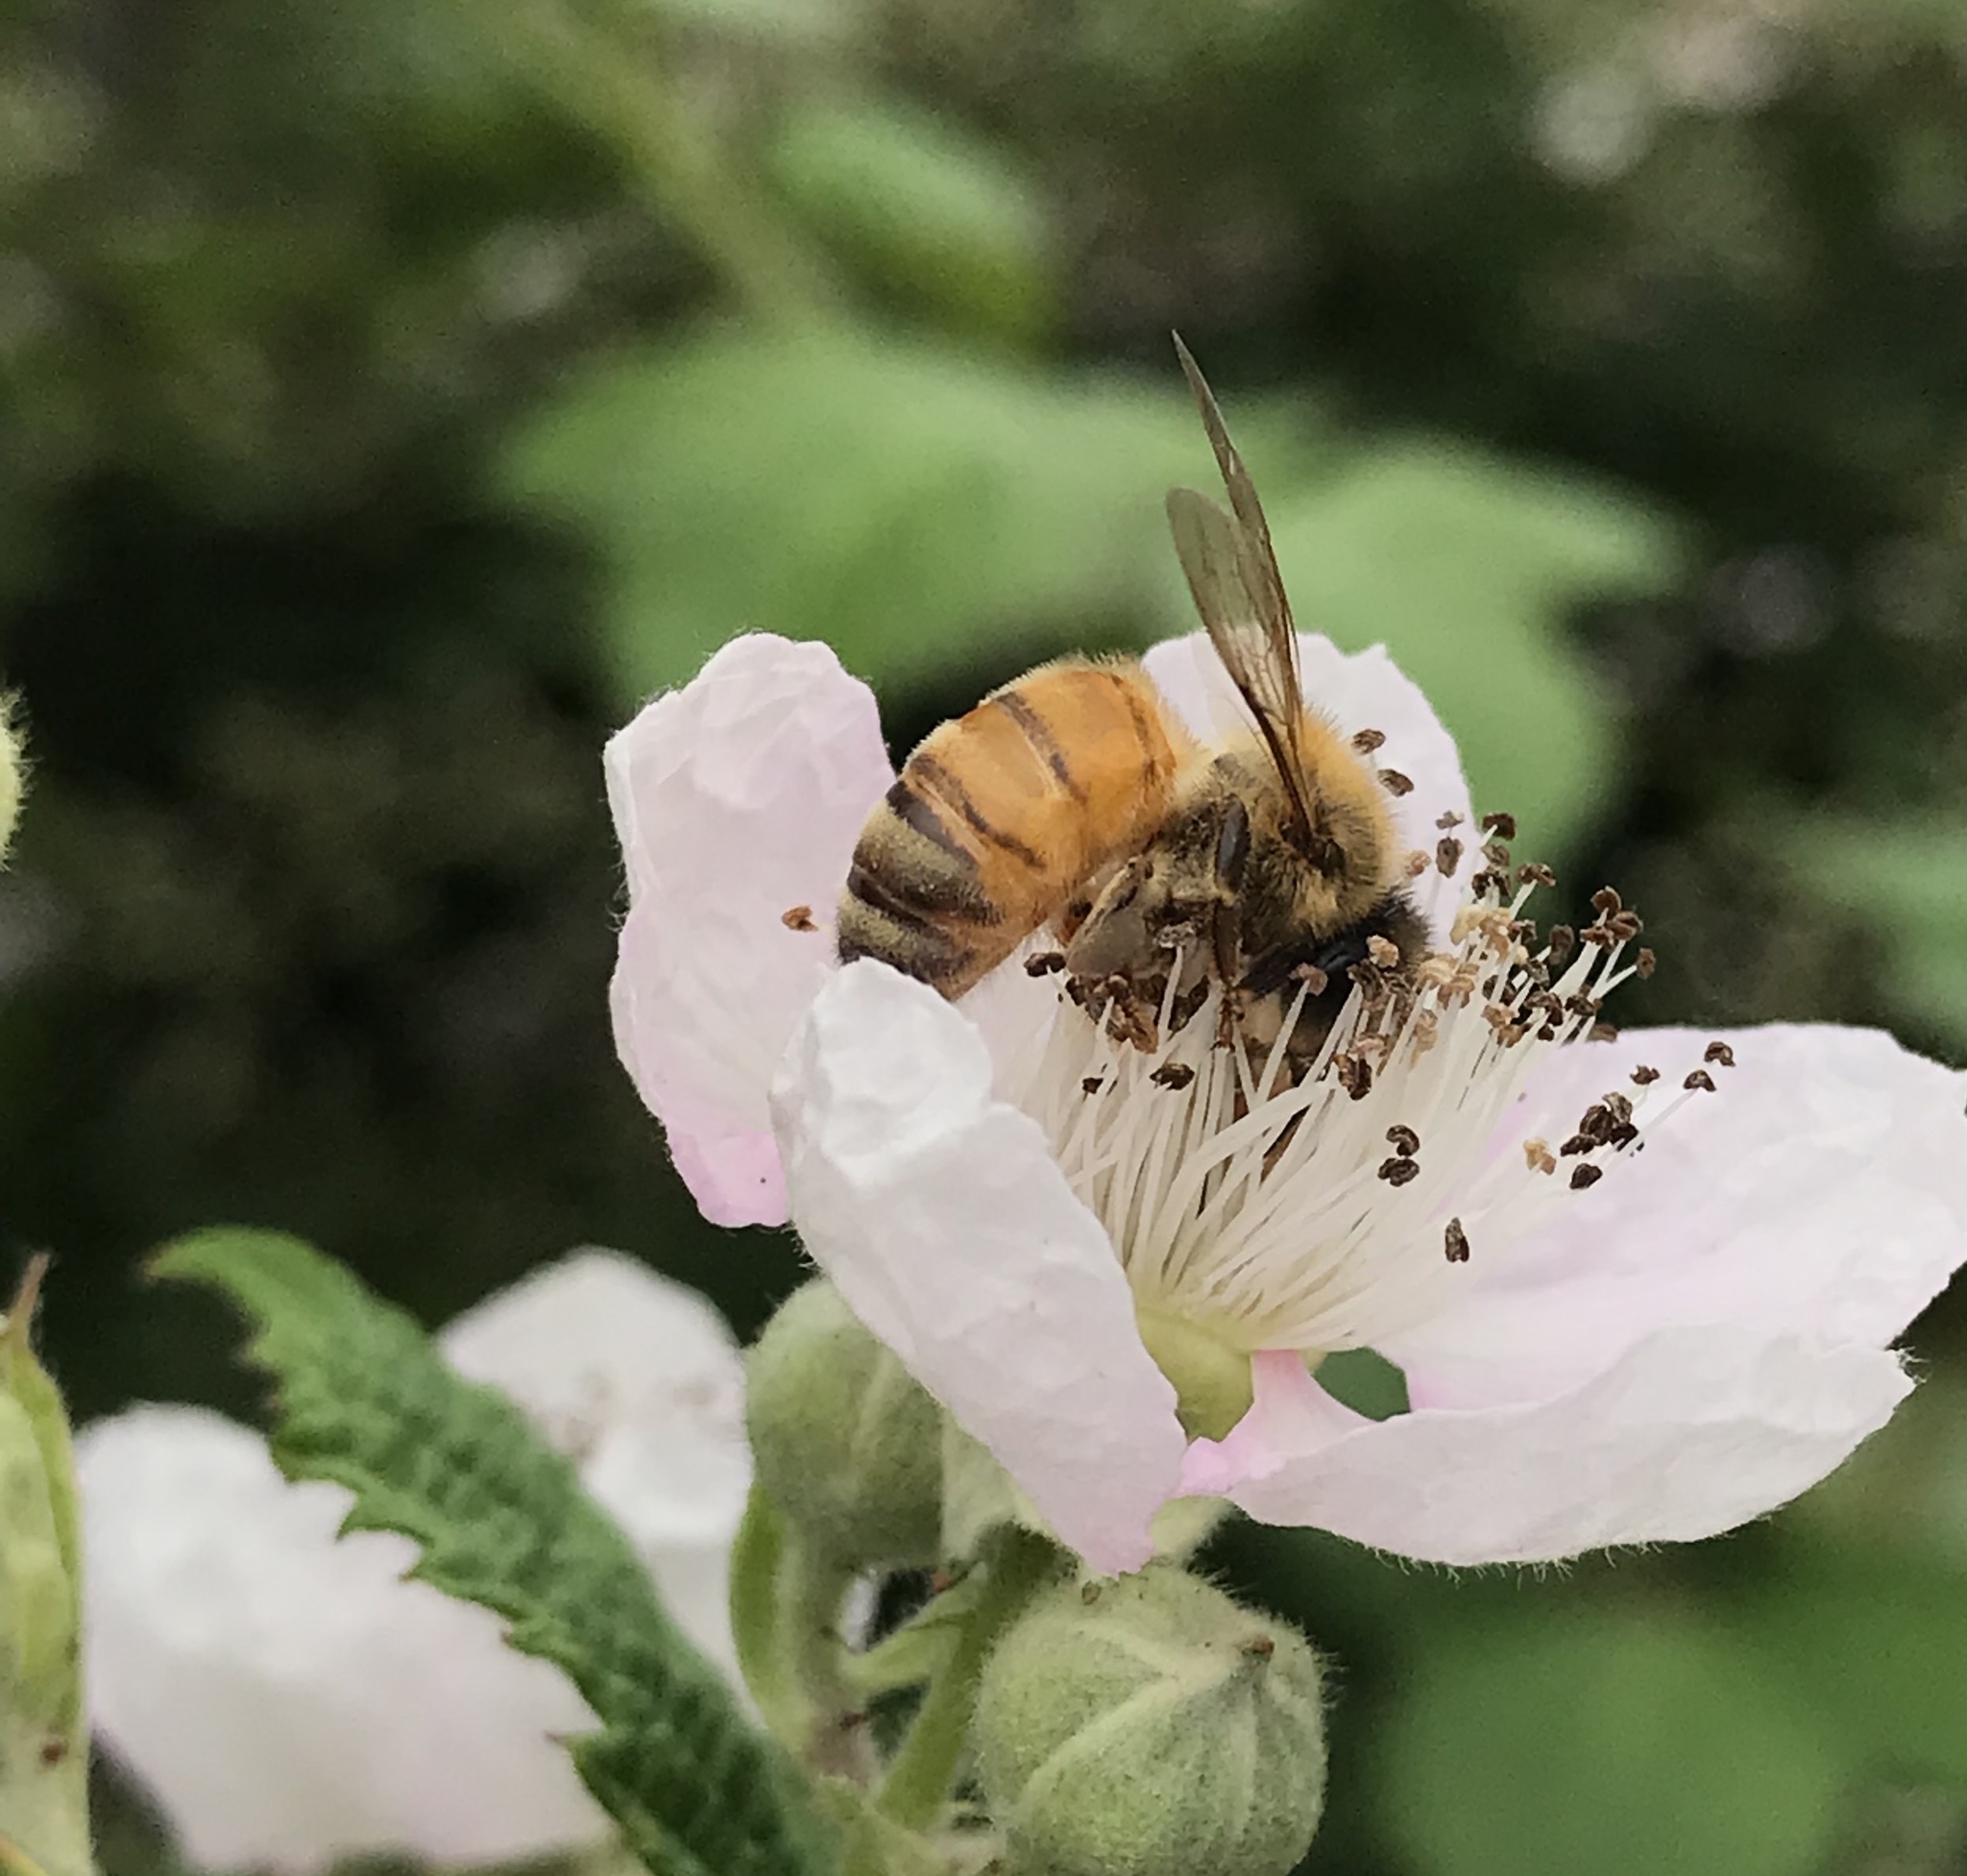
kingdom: Animalia
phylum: Arthropoda
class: Insecta
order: Hymenoptera
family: Apidae
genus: Apis
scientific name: Apis mellifera
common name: Honey bee
